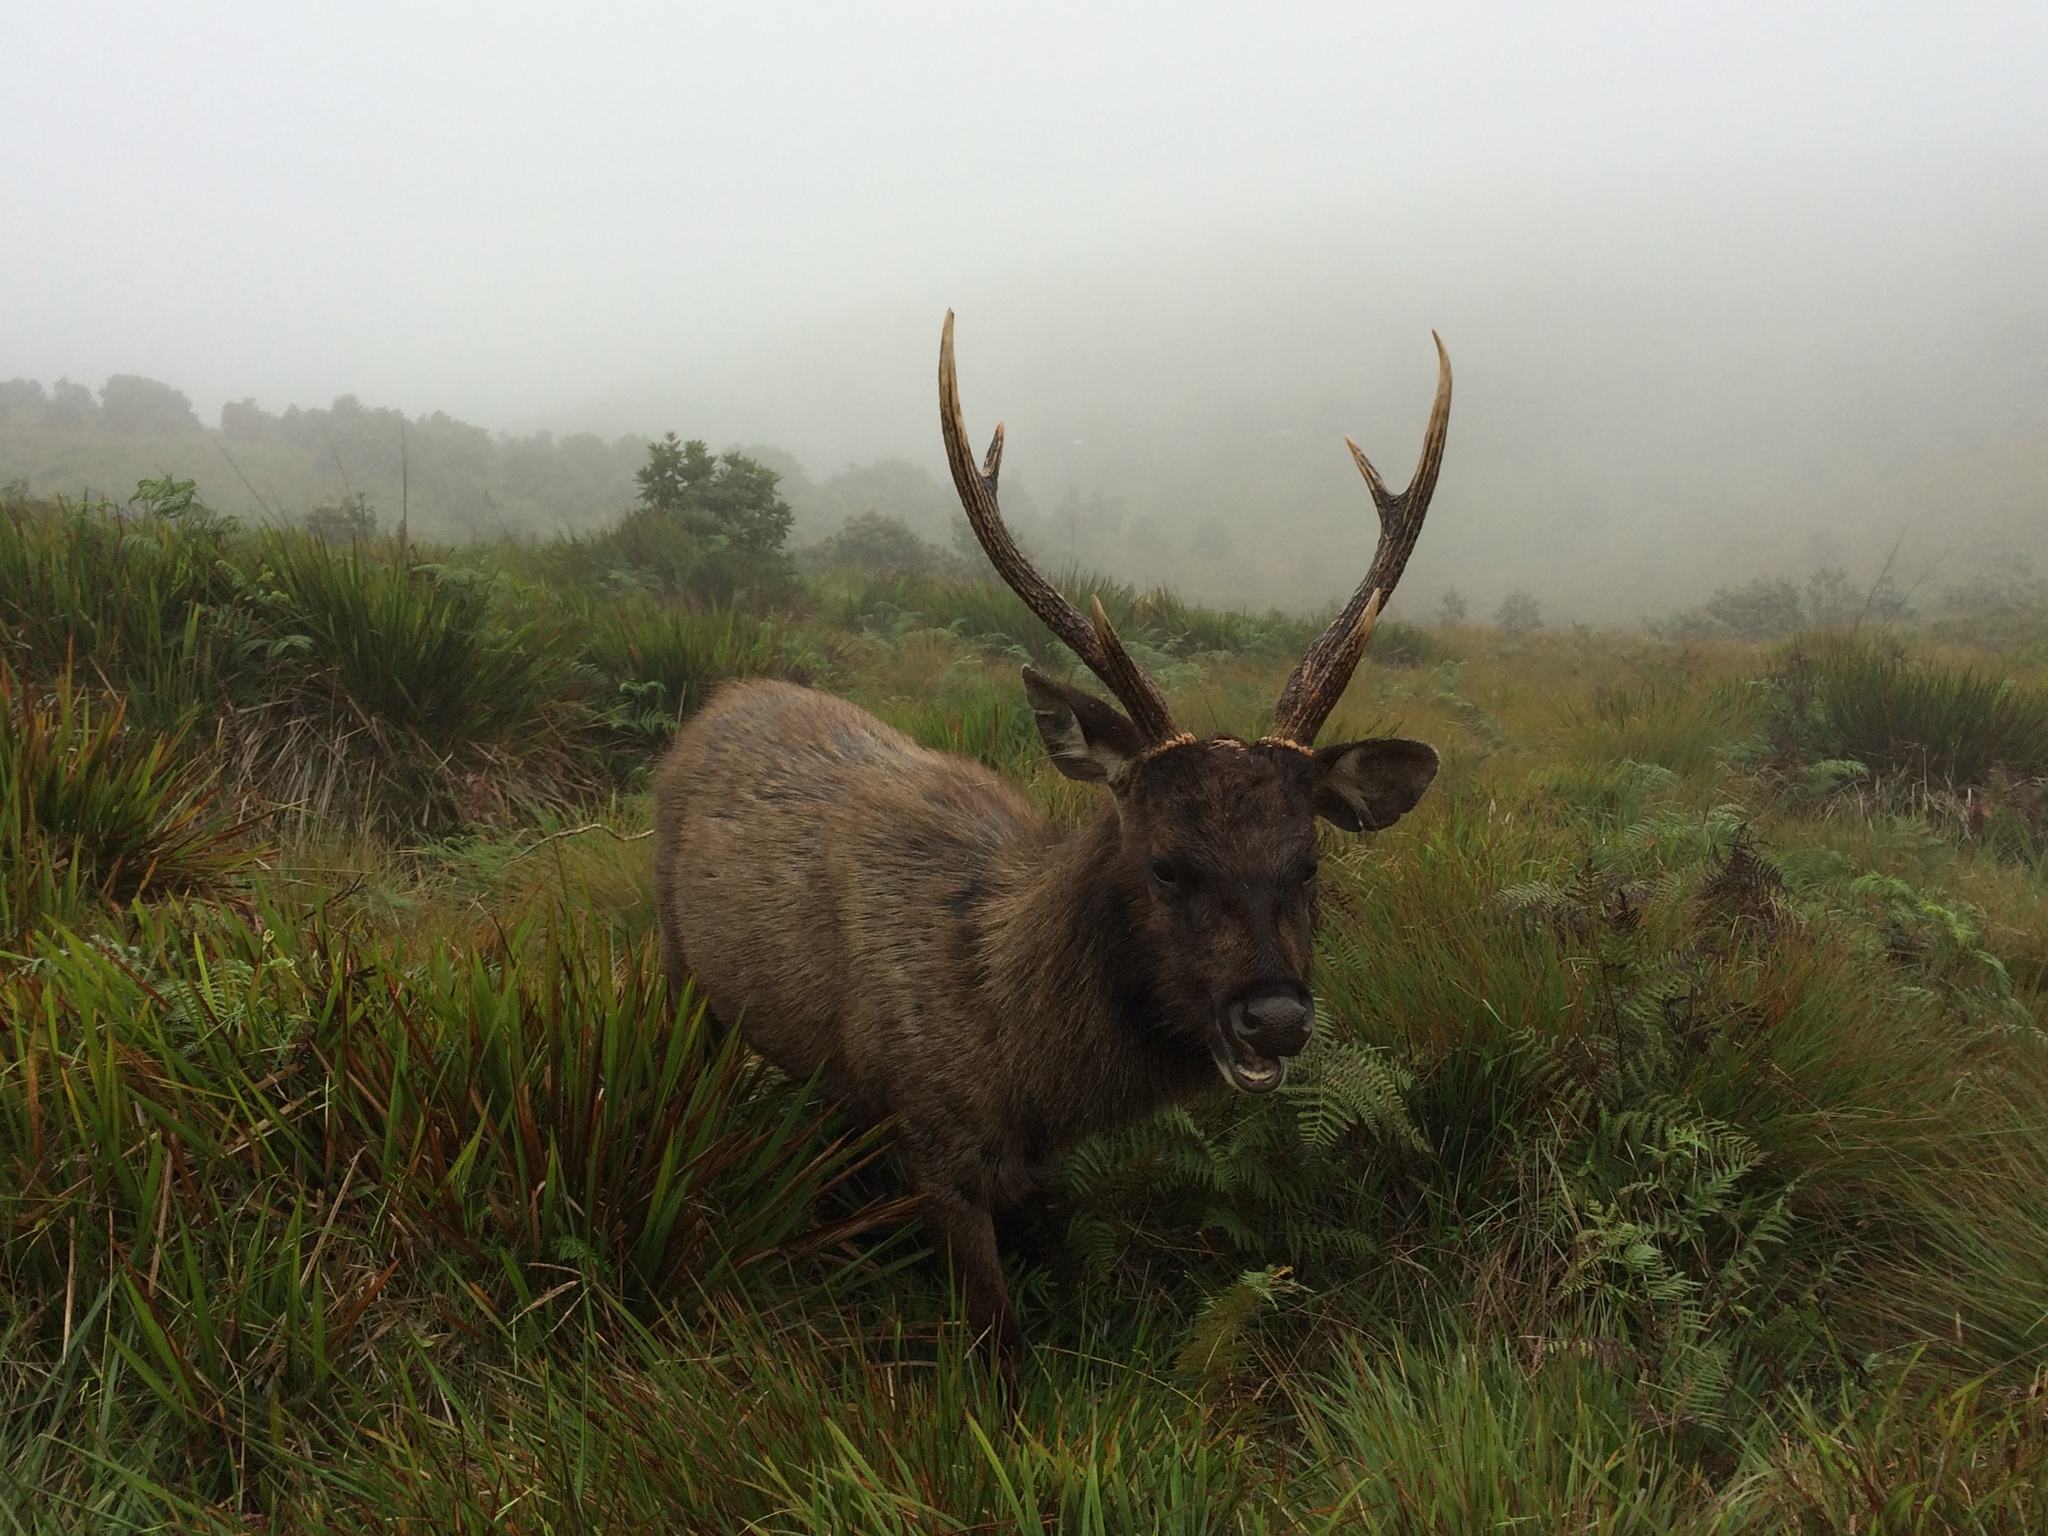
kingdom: Animalia
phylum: Chordata
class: Mammalia
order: Artiodactyla
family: Cervidae
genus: Rusa
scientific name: Rusa unicolor
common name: Sambar
